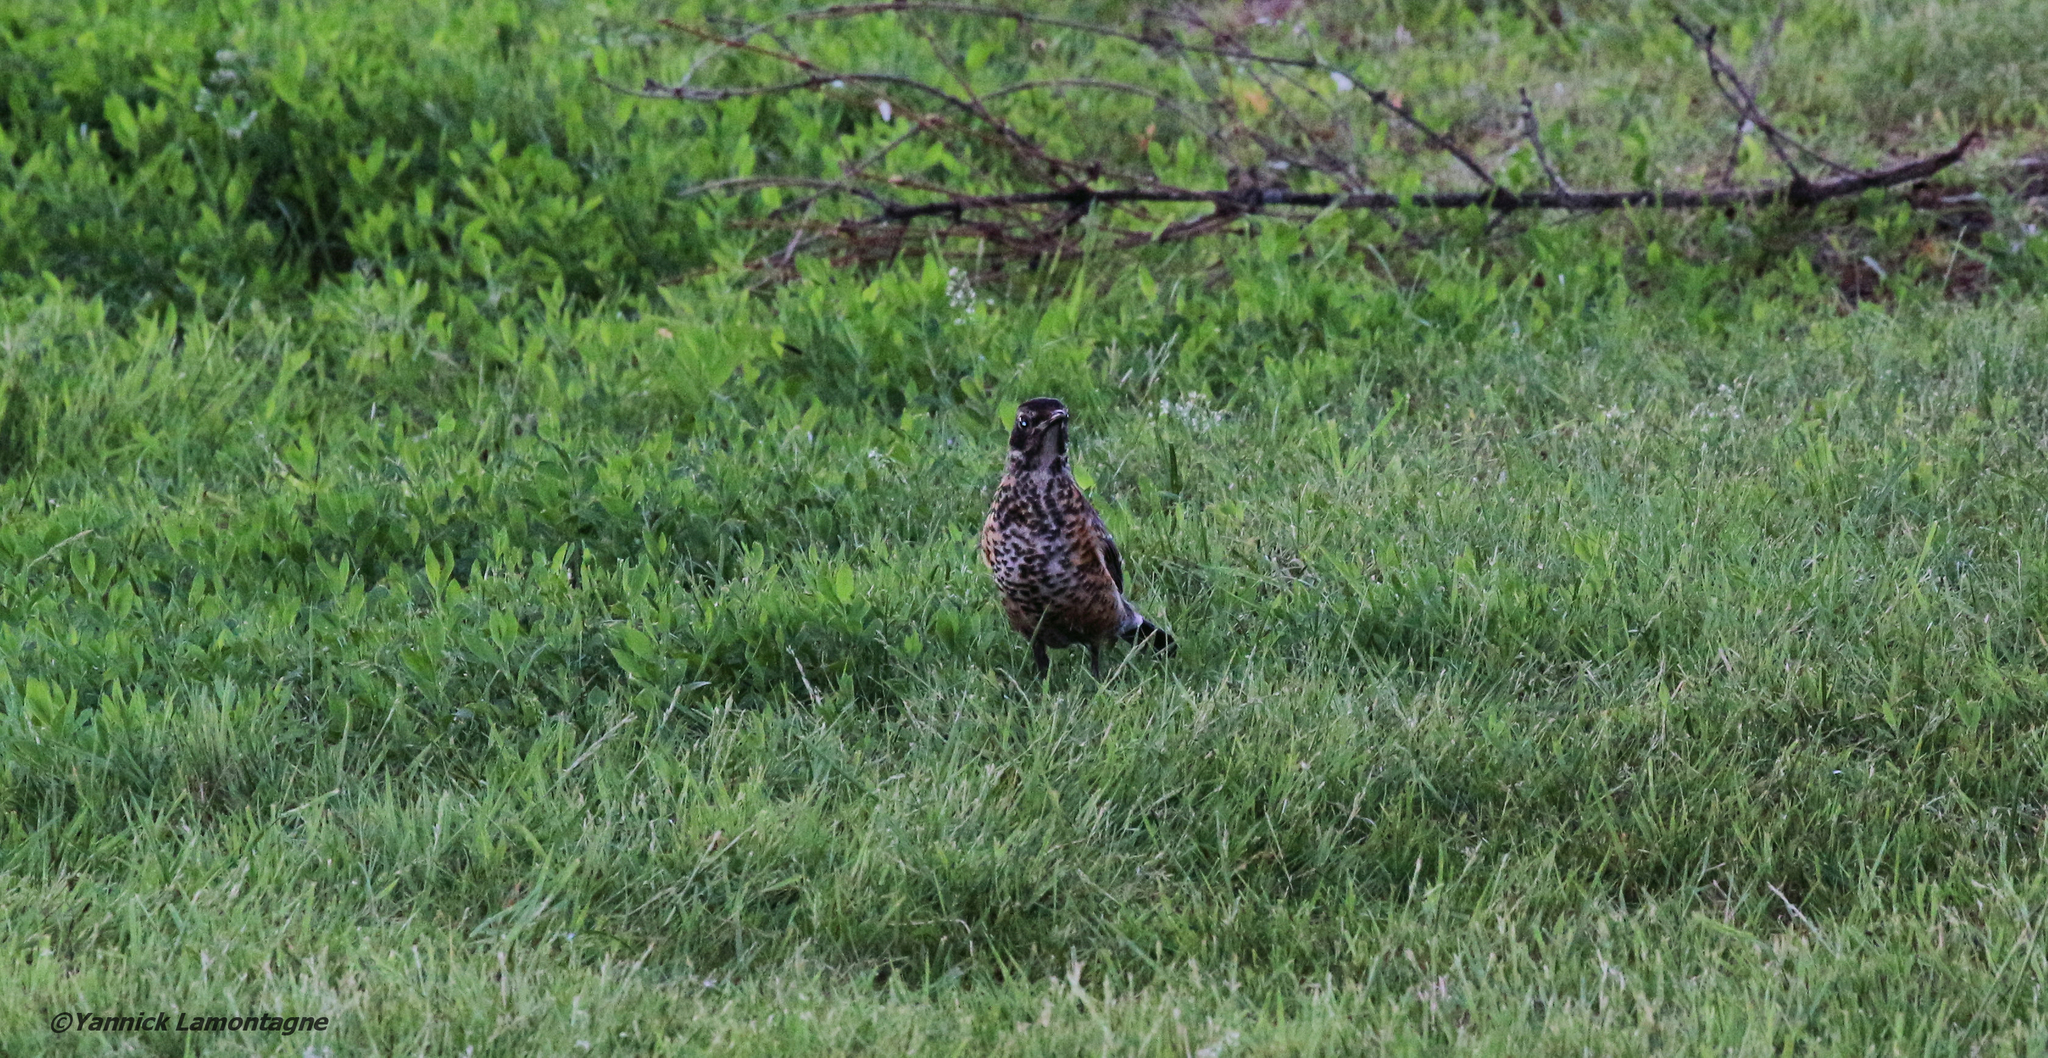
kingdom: Animalia
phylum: Chordata
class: Aves
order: Passeriformes
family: Turdidae
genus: Turdus
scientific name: Turdus migratorius
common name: American robin
